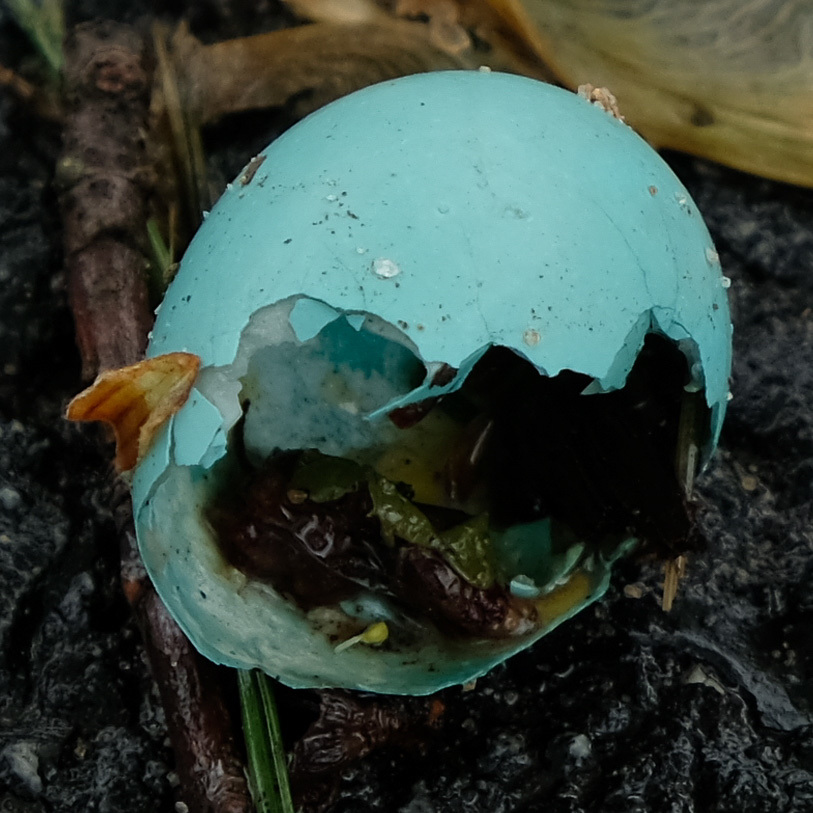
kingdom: Animalia
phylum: Chordata
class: Aves
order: Passeriformes
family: Turdidae
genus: Turdus
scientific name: Turdus migratorius
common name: American robin
